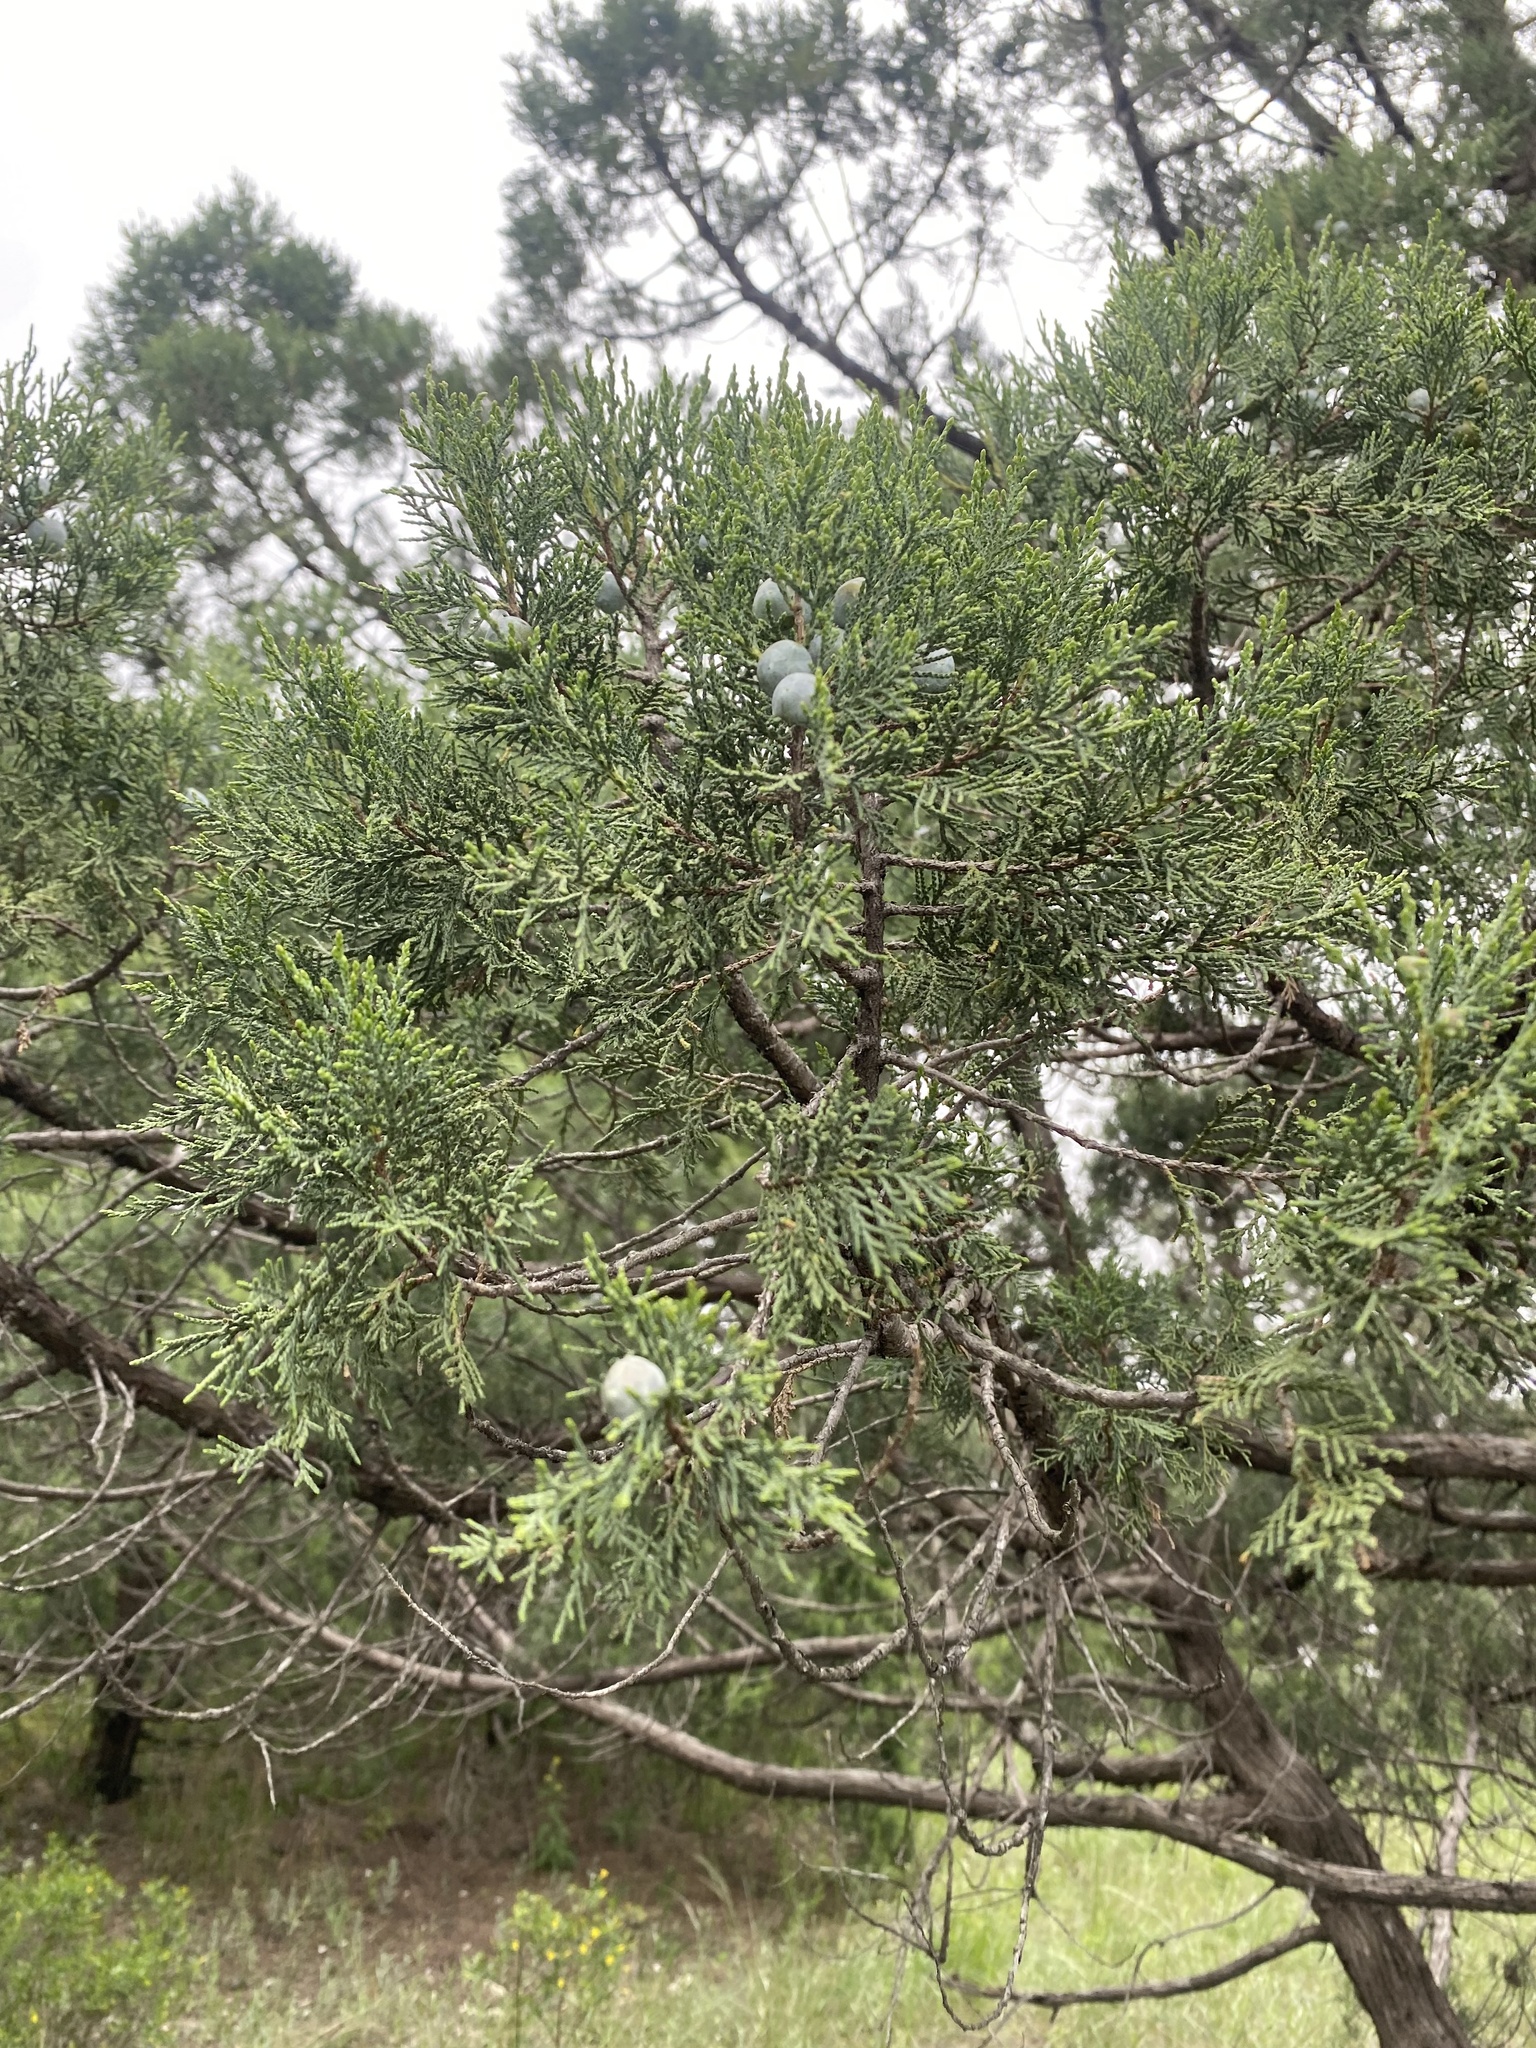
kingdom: Plantae
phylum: Tracheophyta
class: Pinopsida
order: Pinales
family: Cupressaceae
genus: Juniperus
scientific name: Juniperus foetidissima
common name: Stinking juniper
